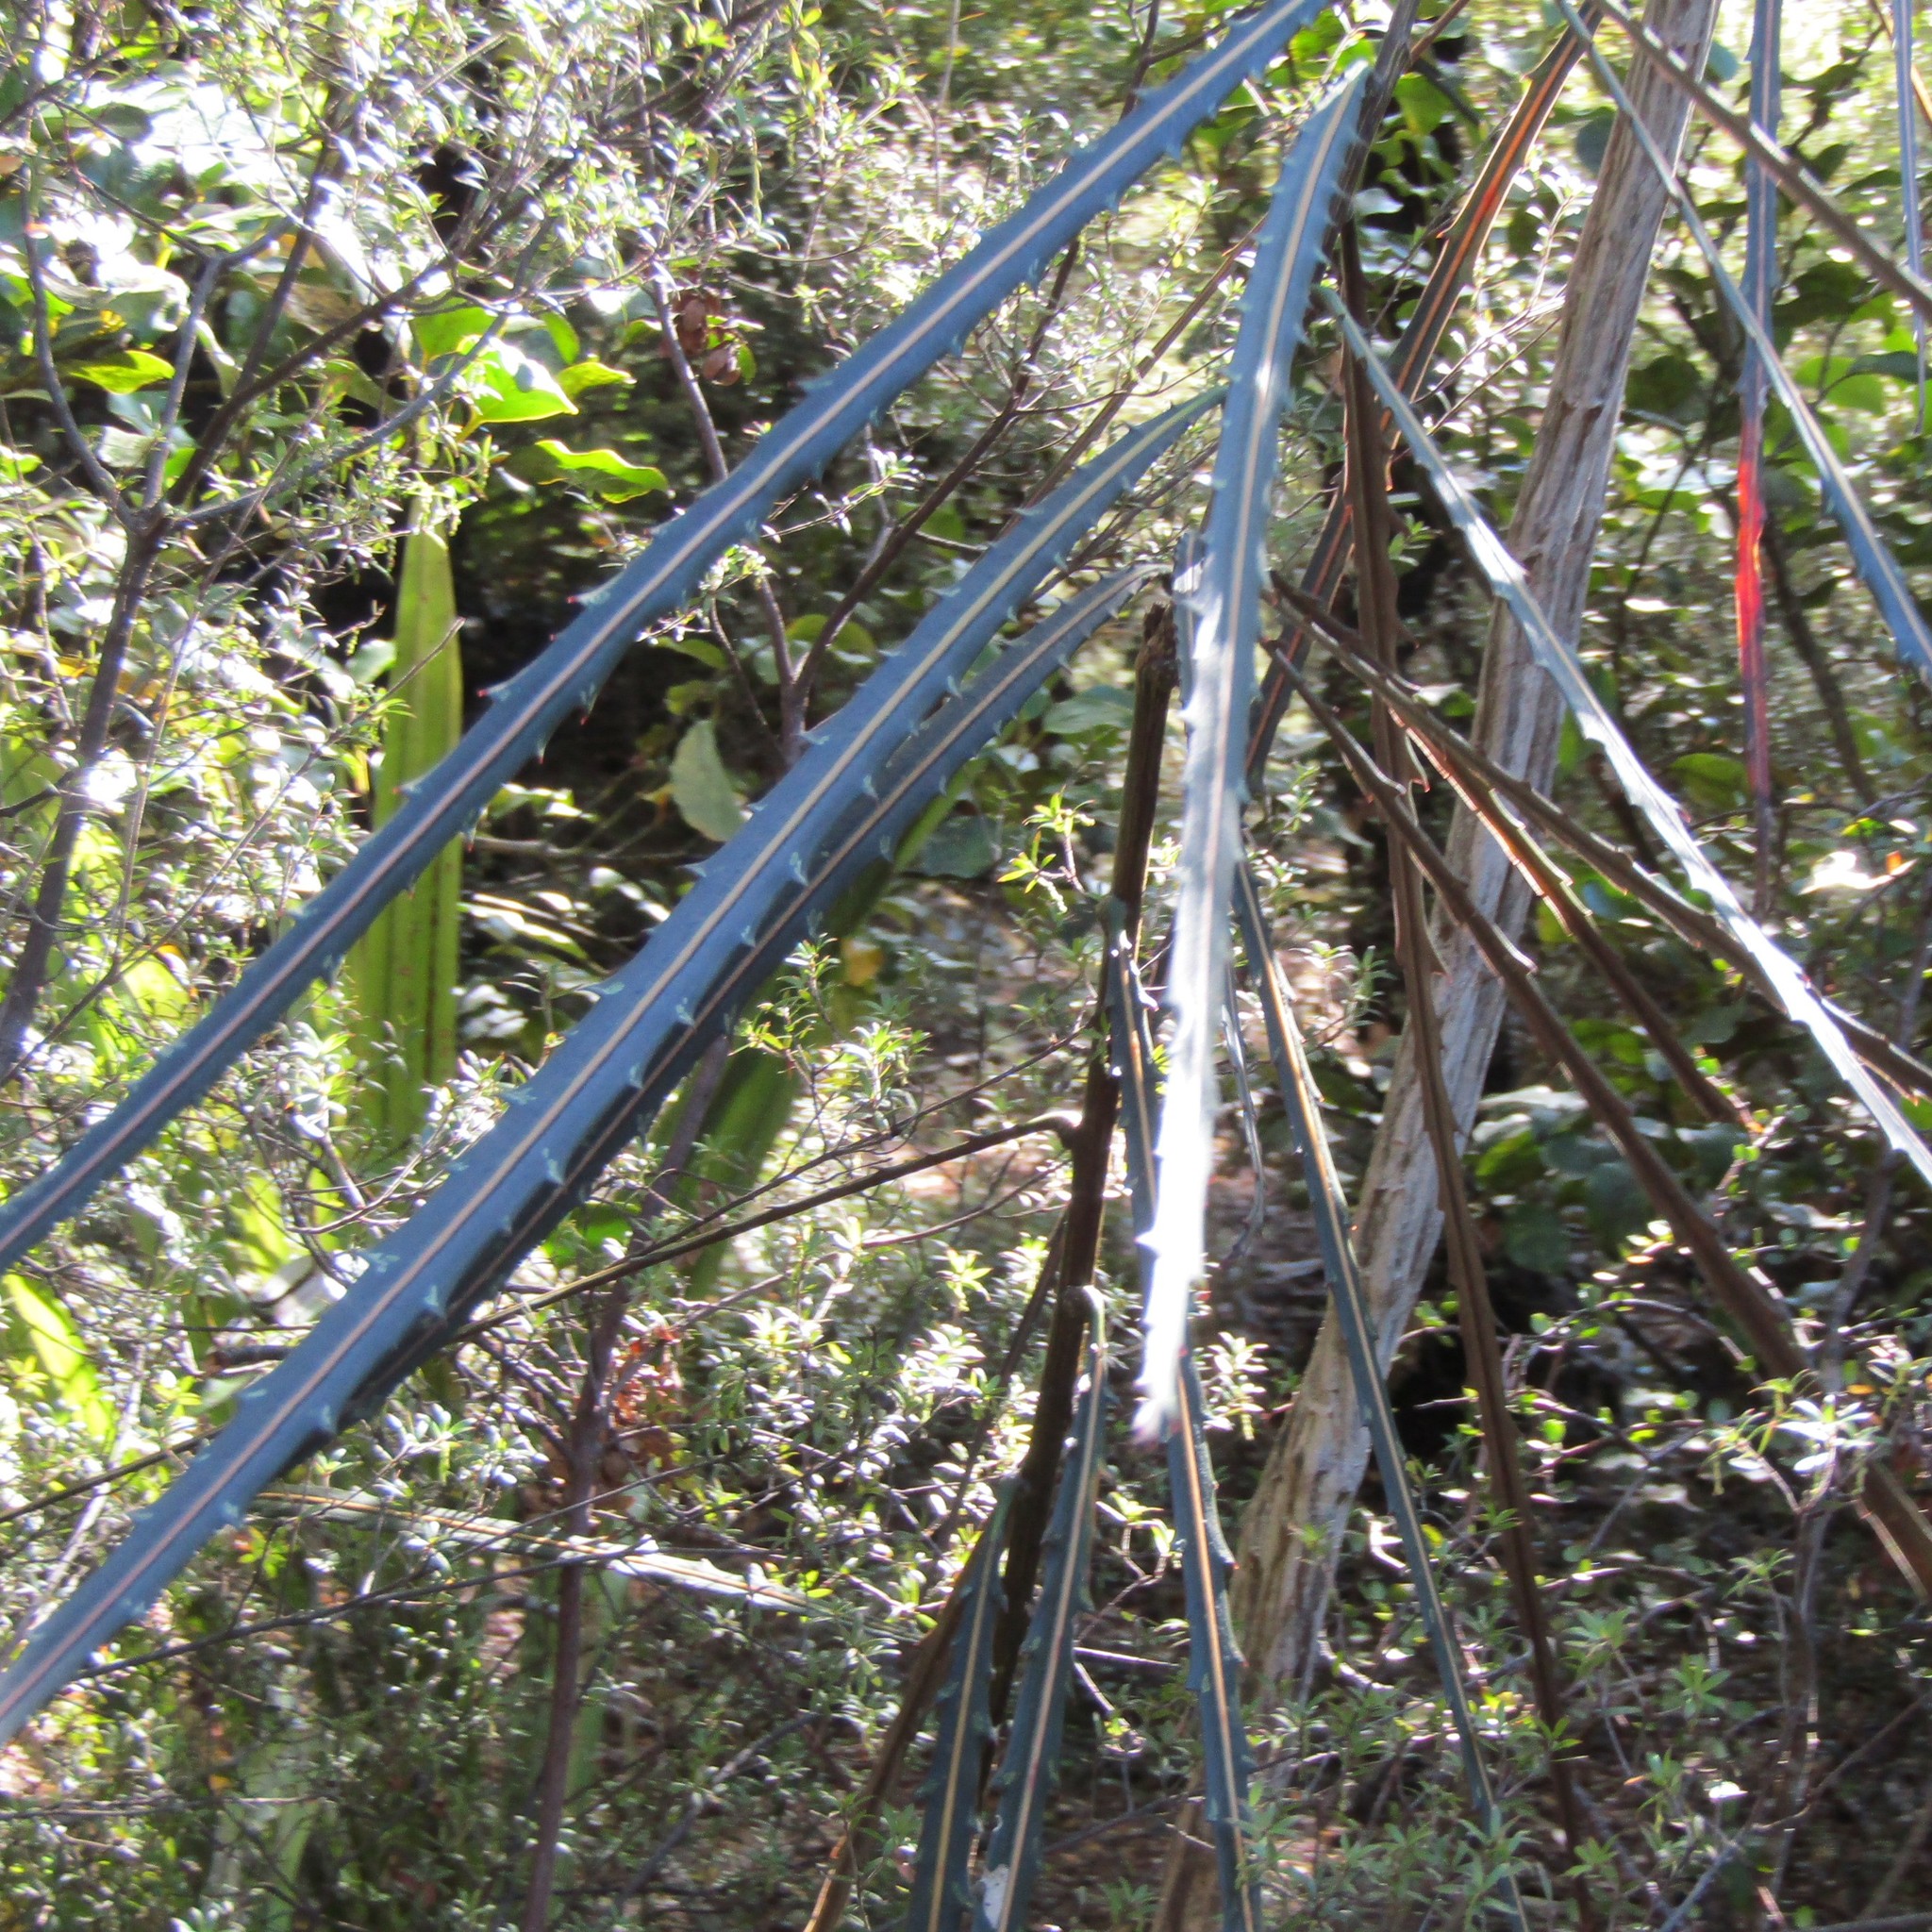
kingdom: Plantae
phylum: Tracheophyta
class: Magnoliopsida
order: Apiales
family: Araliaceae
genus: Pseudopanax
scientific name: Pseudopanax crassifolius
